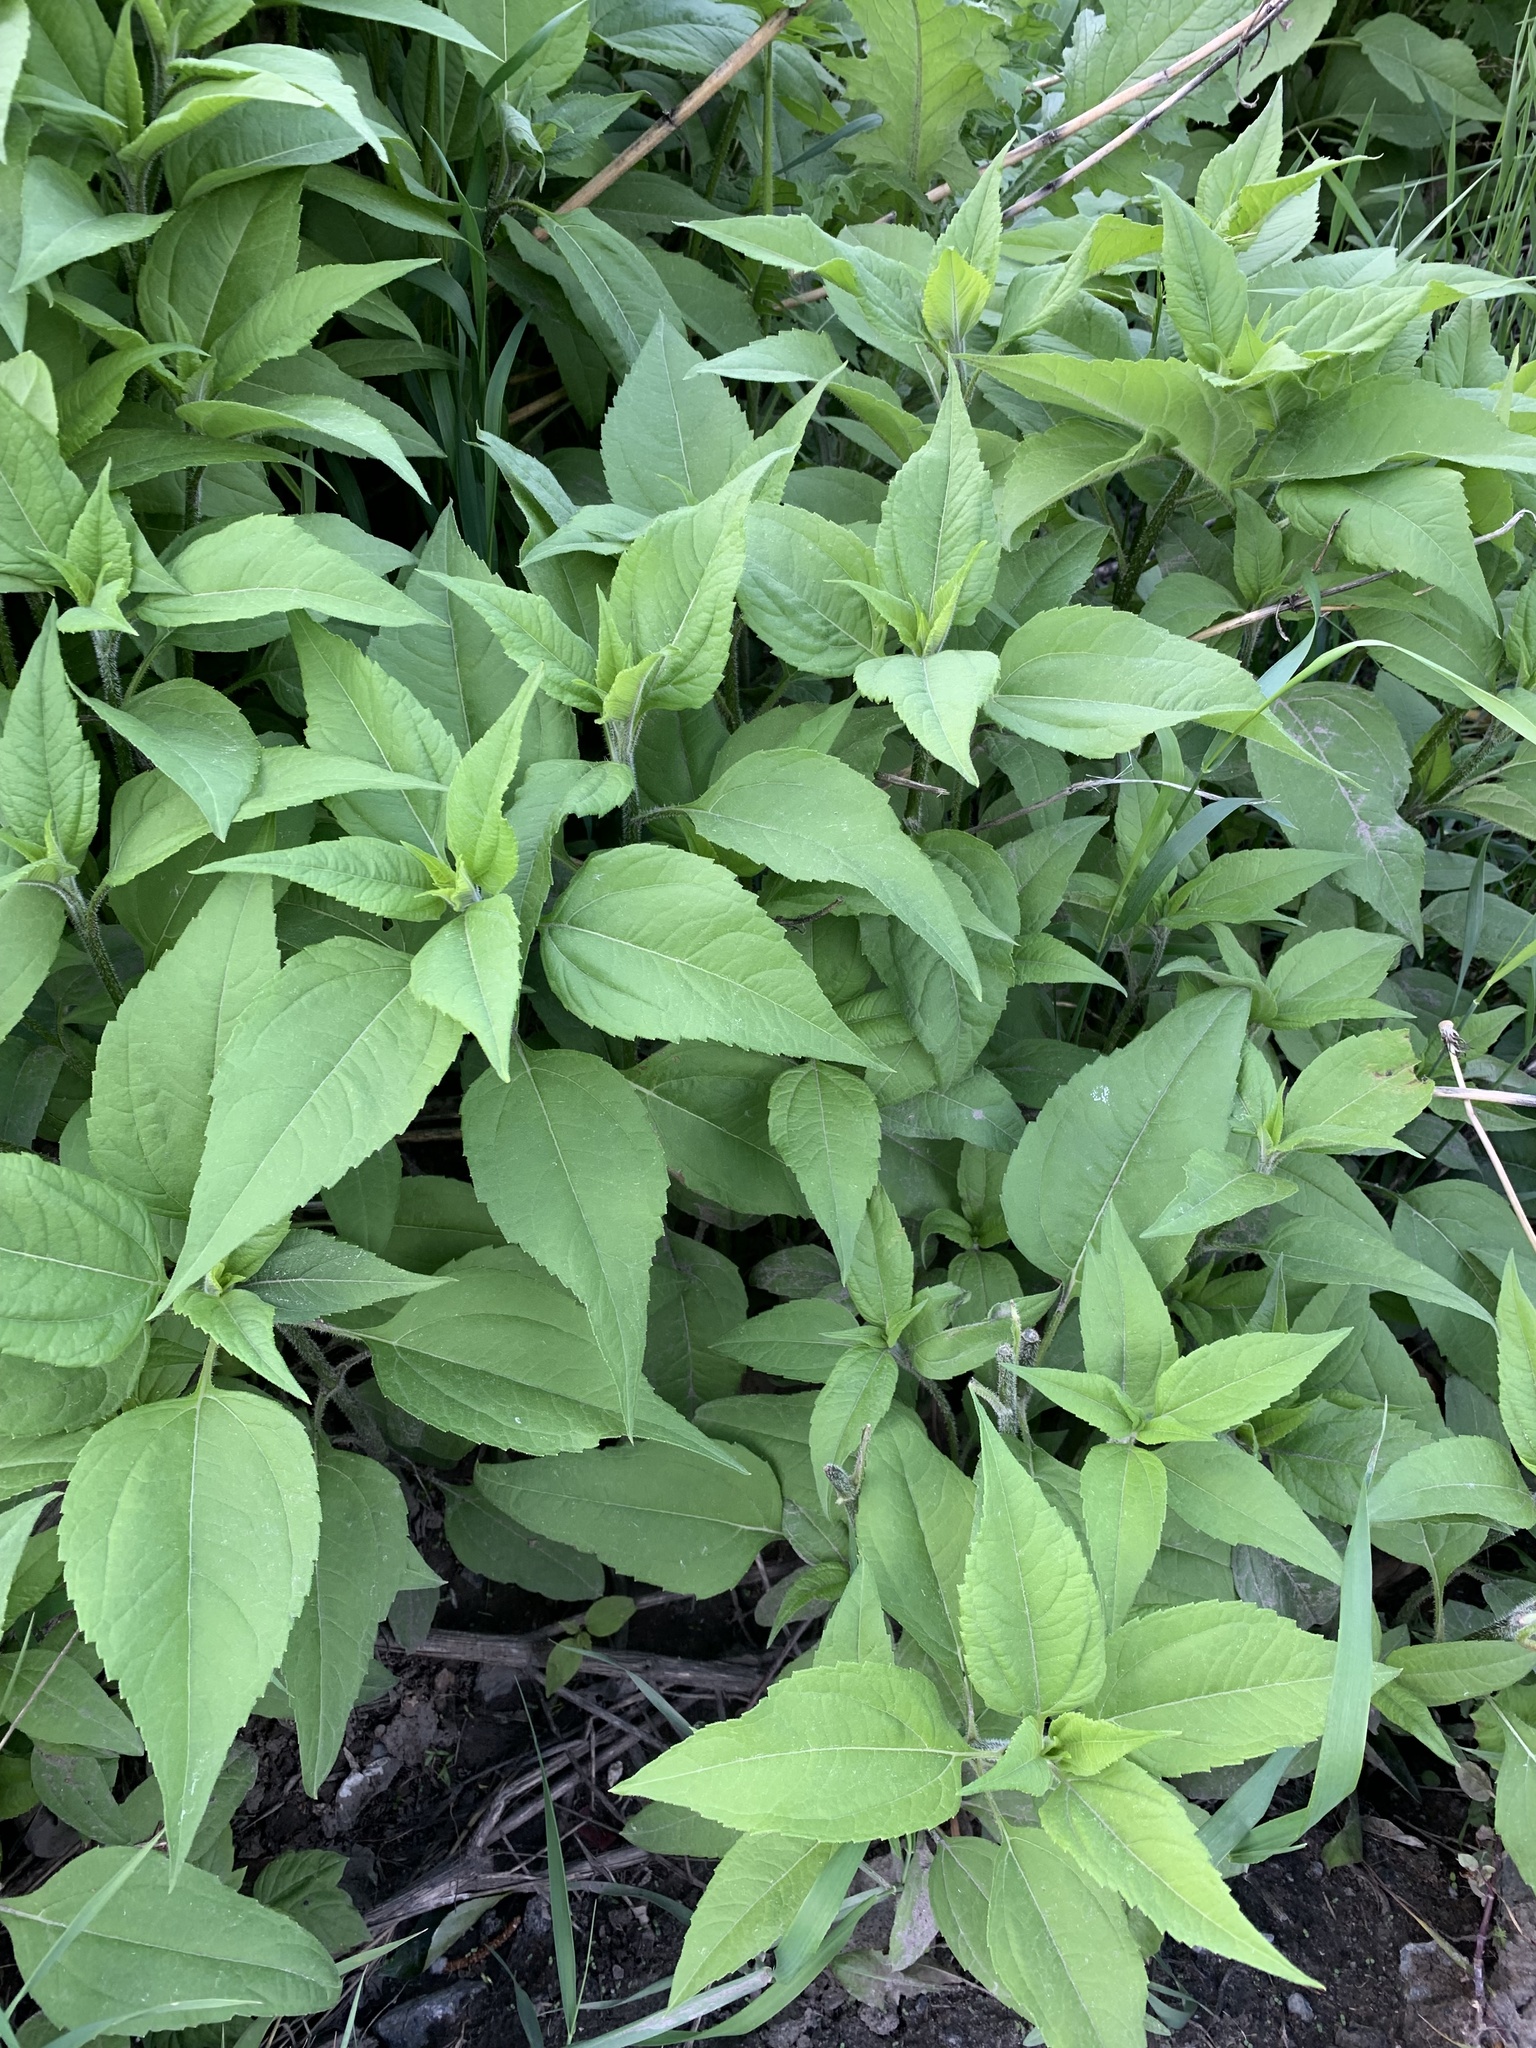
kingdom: Plantae
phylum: Tracheophyta
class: Magnoliopsida
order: Asterales
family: Asteraceae
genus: Helianthus
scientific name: Helianthus tuberosus
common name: Jerusalem artichoke
